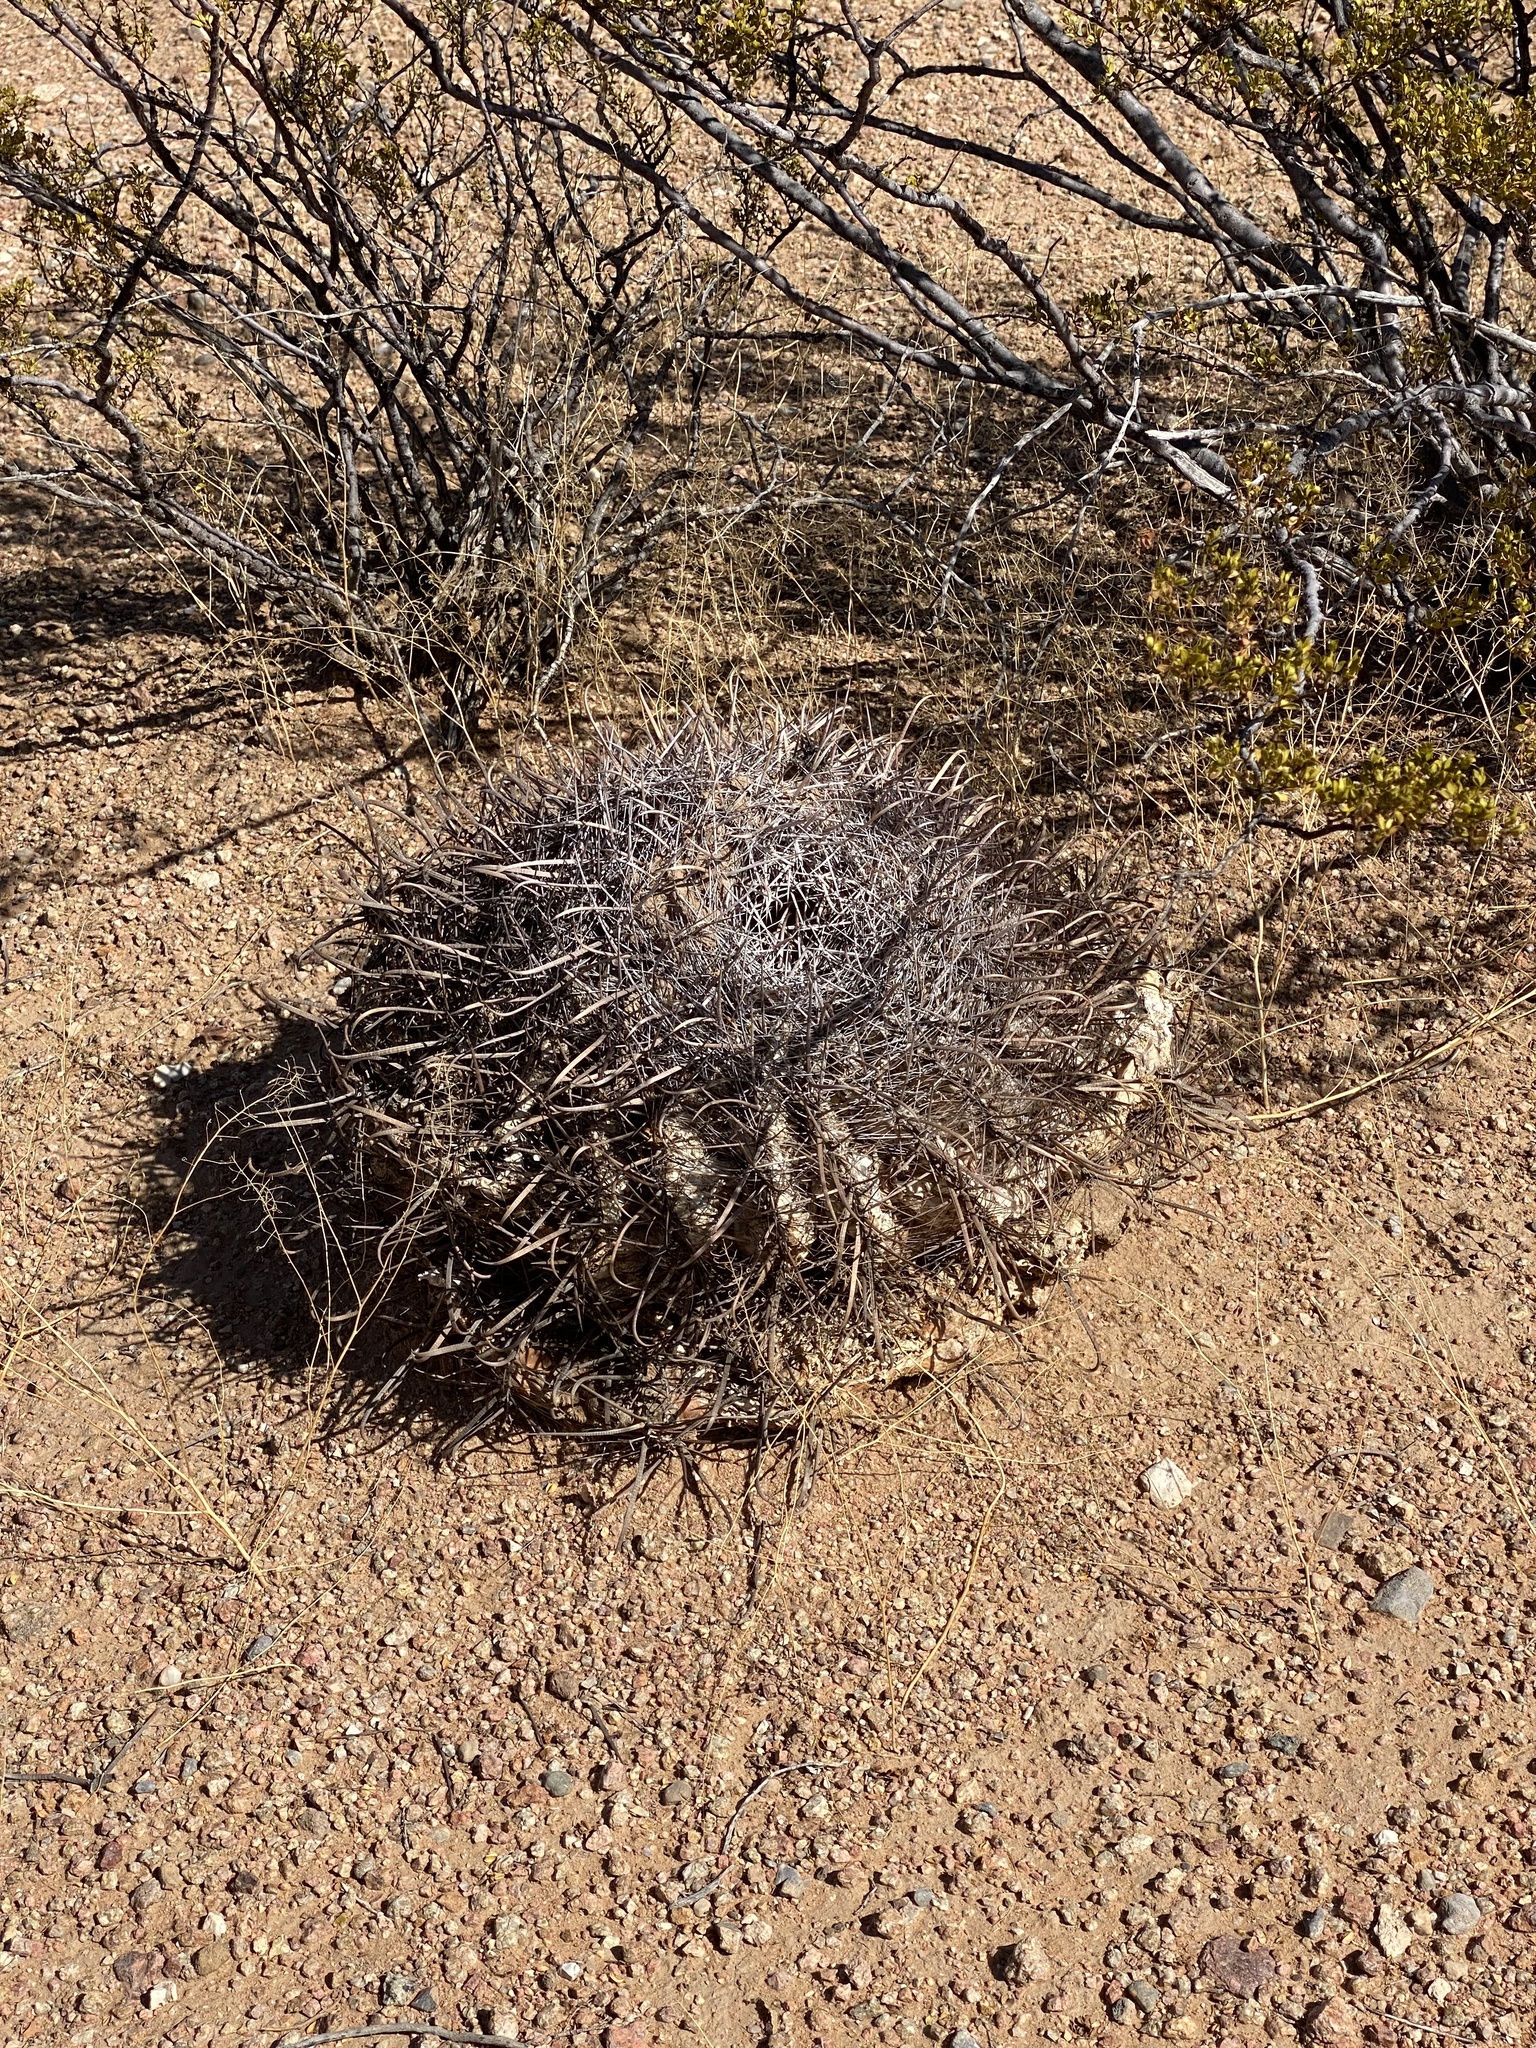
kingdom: Plantae
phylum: Tracheophyta
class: Magnoliopsida
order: Caryophyllales
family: Cactaceae
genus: Ferocactus
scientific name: Ferocactus wislizeni
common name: Candy barrel cactus
